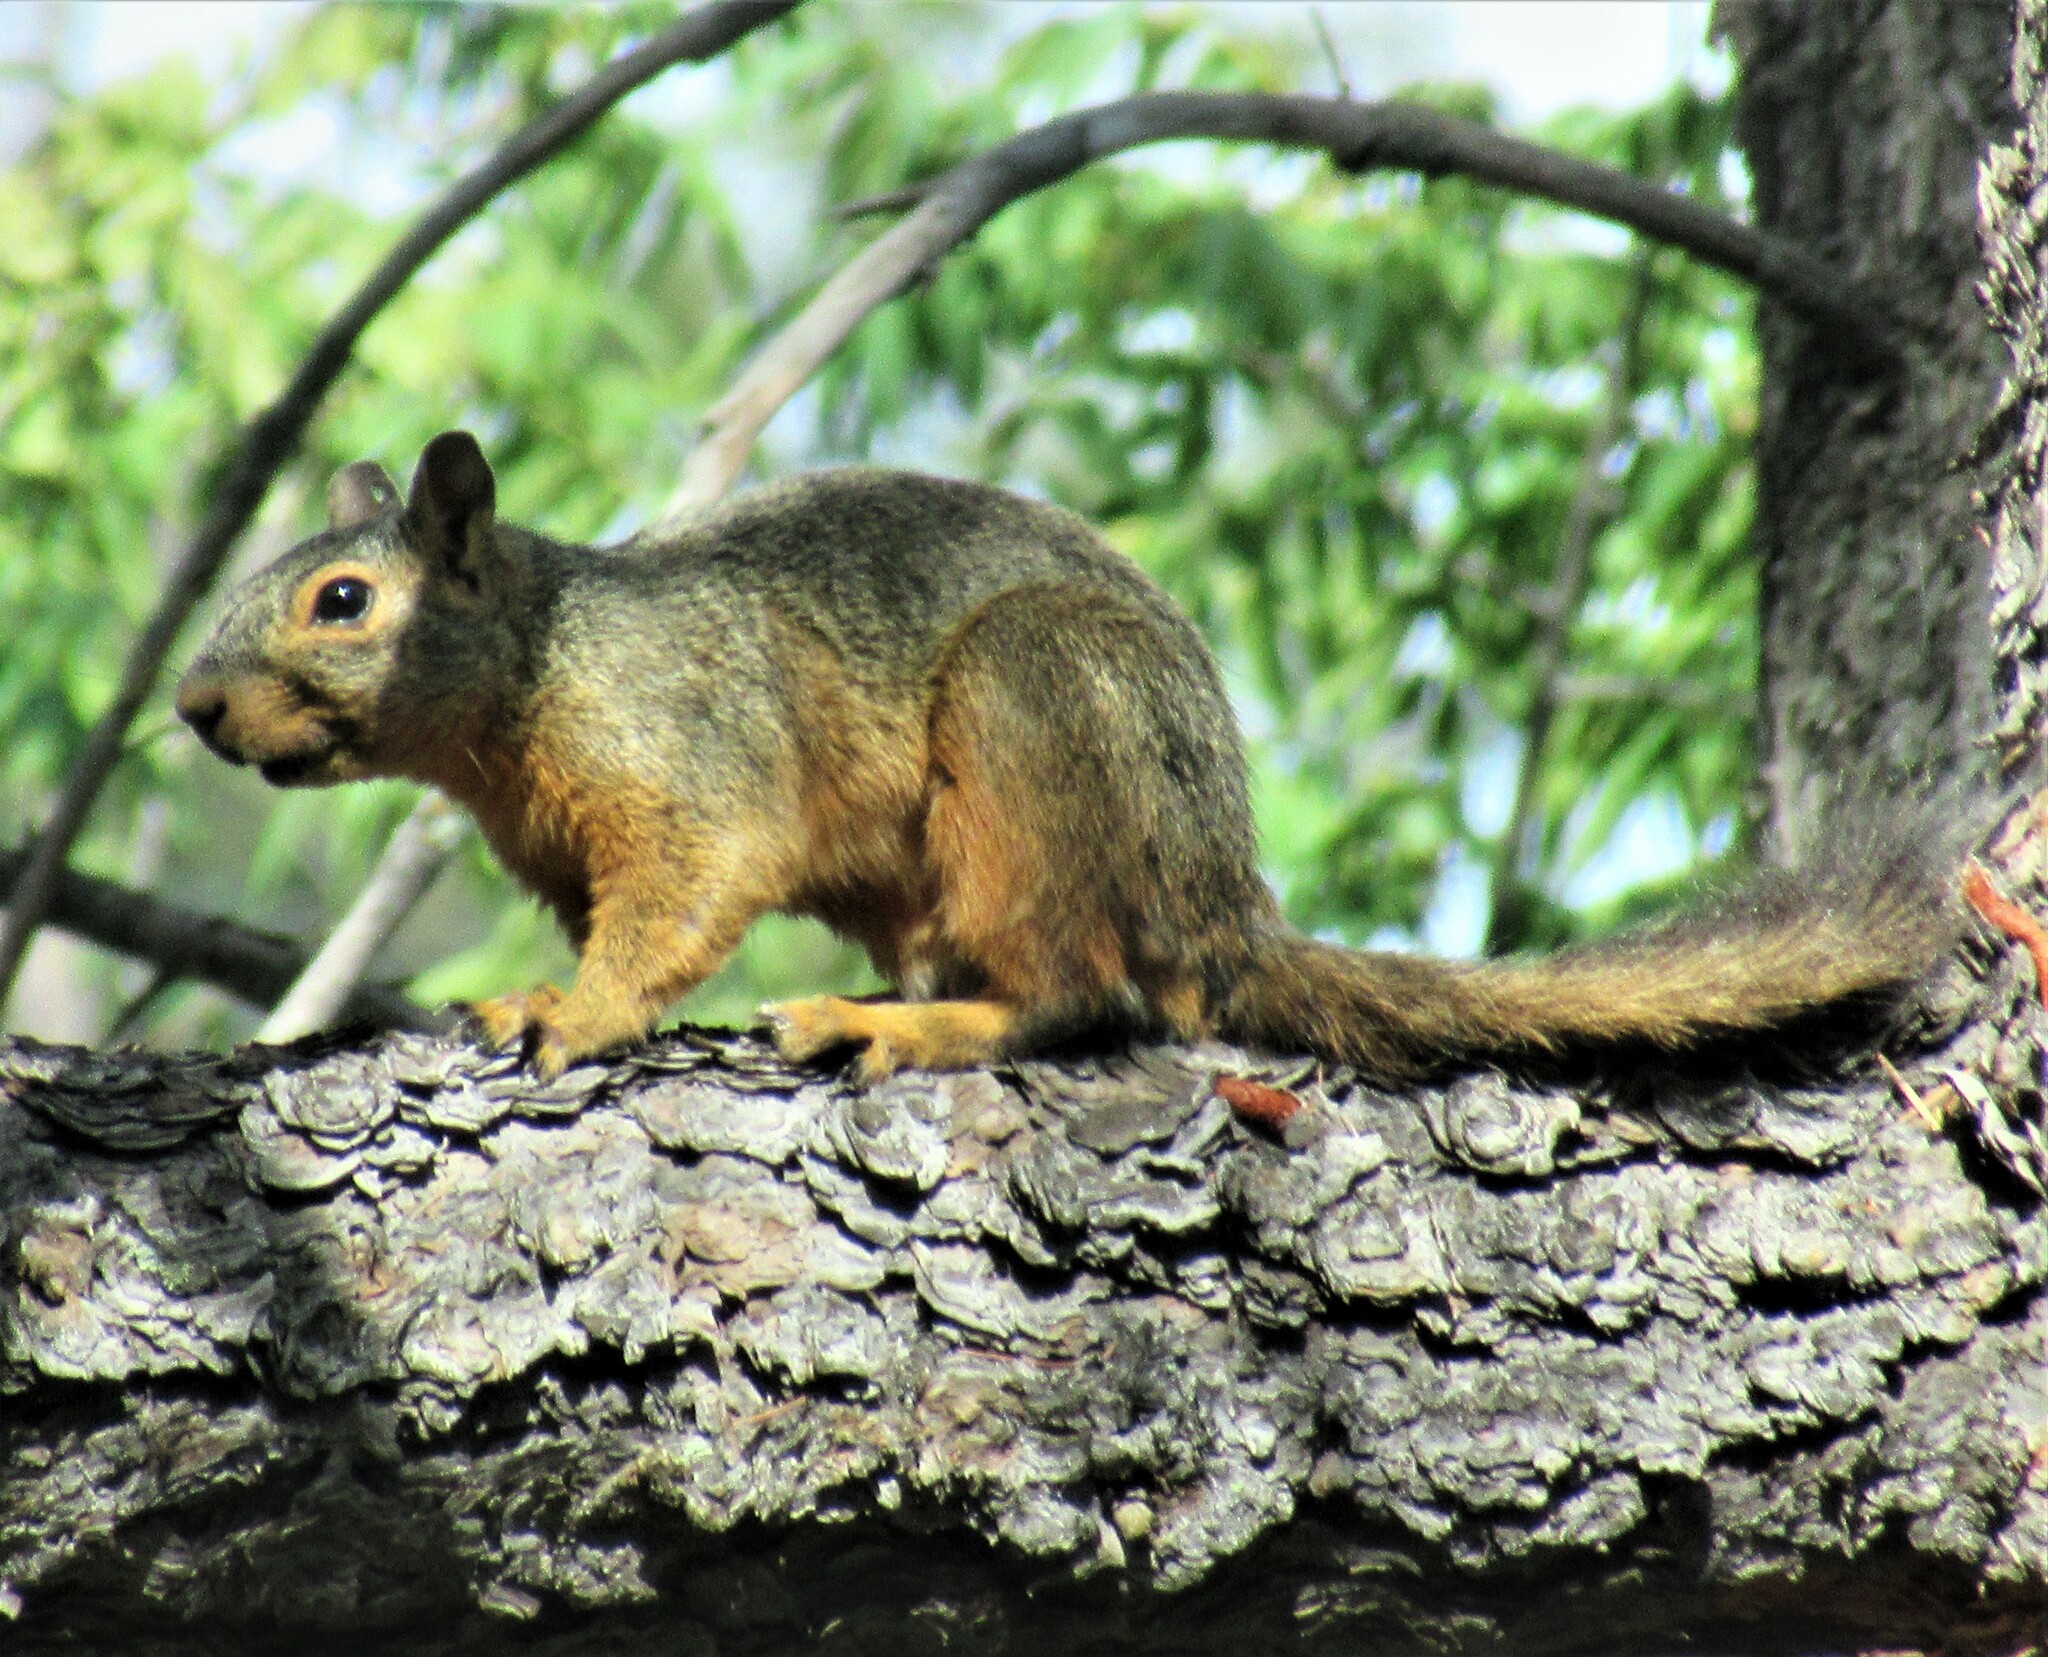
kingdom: Animalia
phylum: Chordata
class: Mammalia
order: Rodentia
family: Sciuridae
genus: Sciurus
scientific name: Sciurus nayaritensis
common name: Mexican fox squirrel
